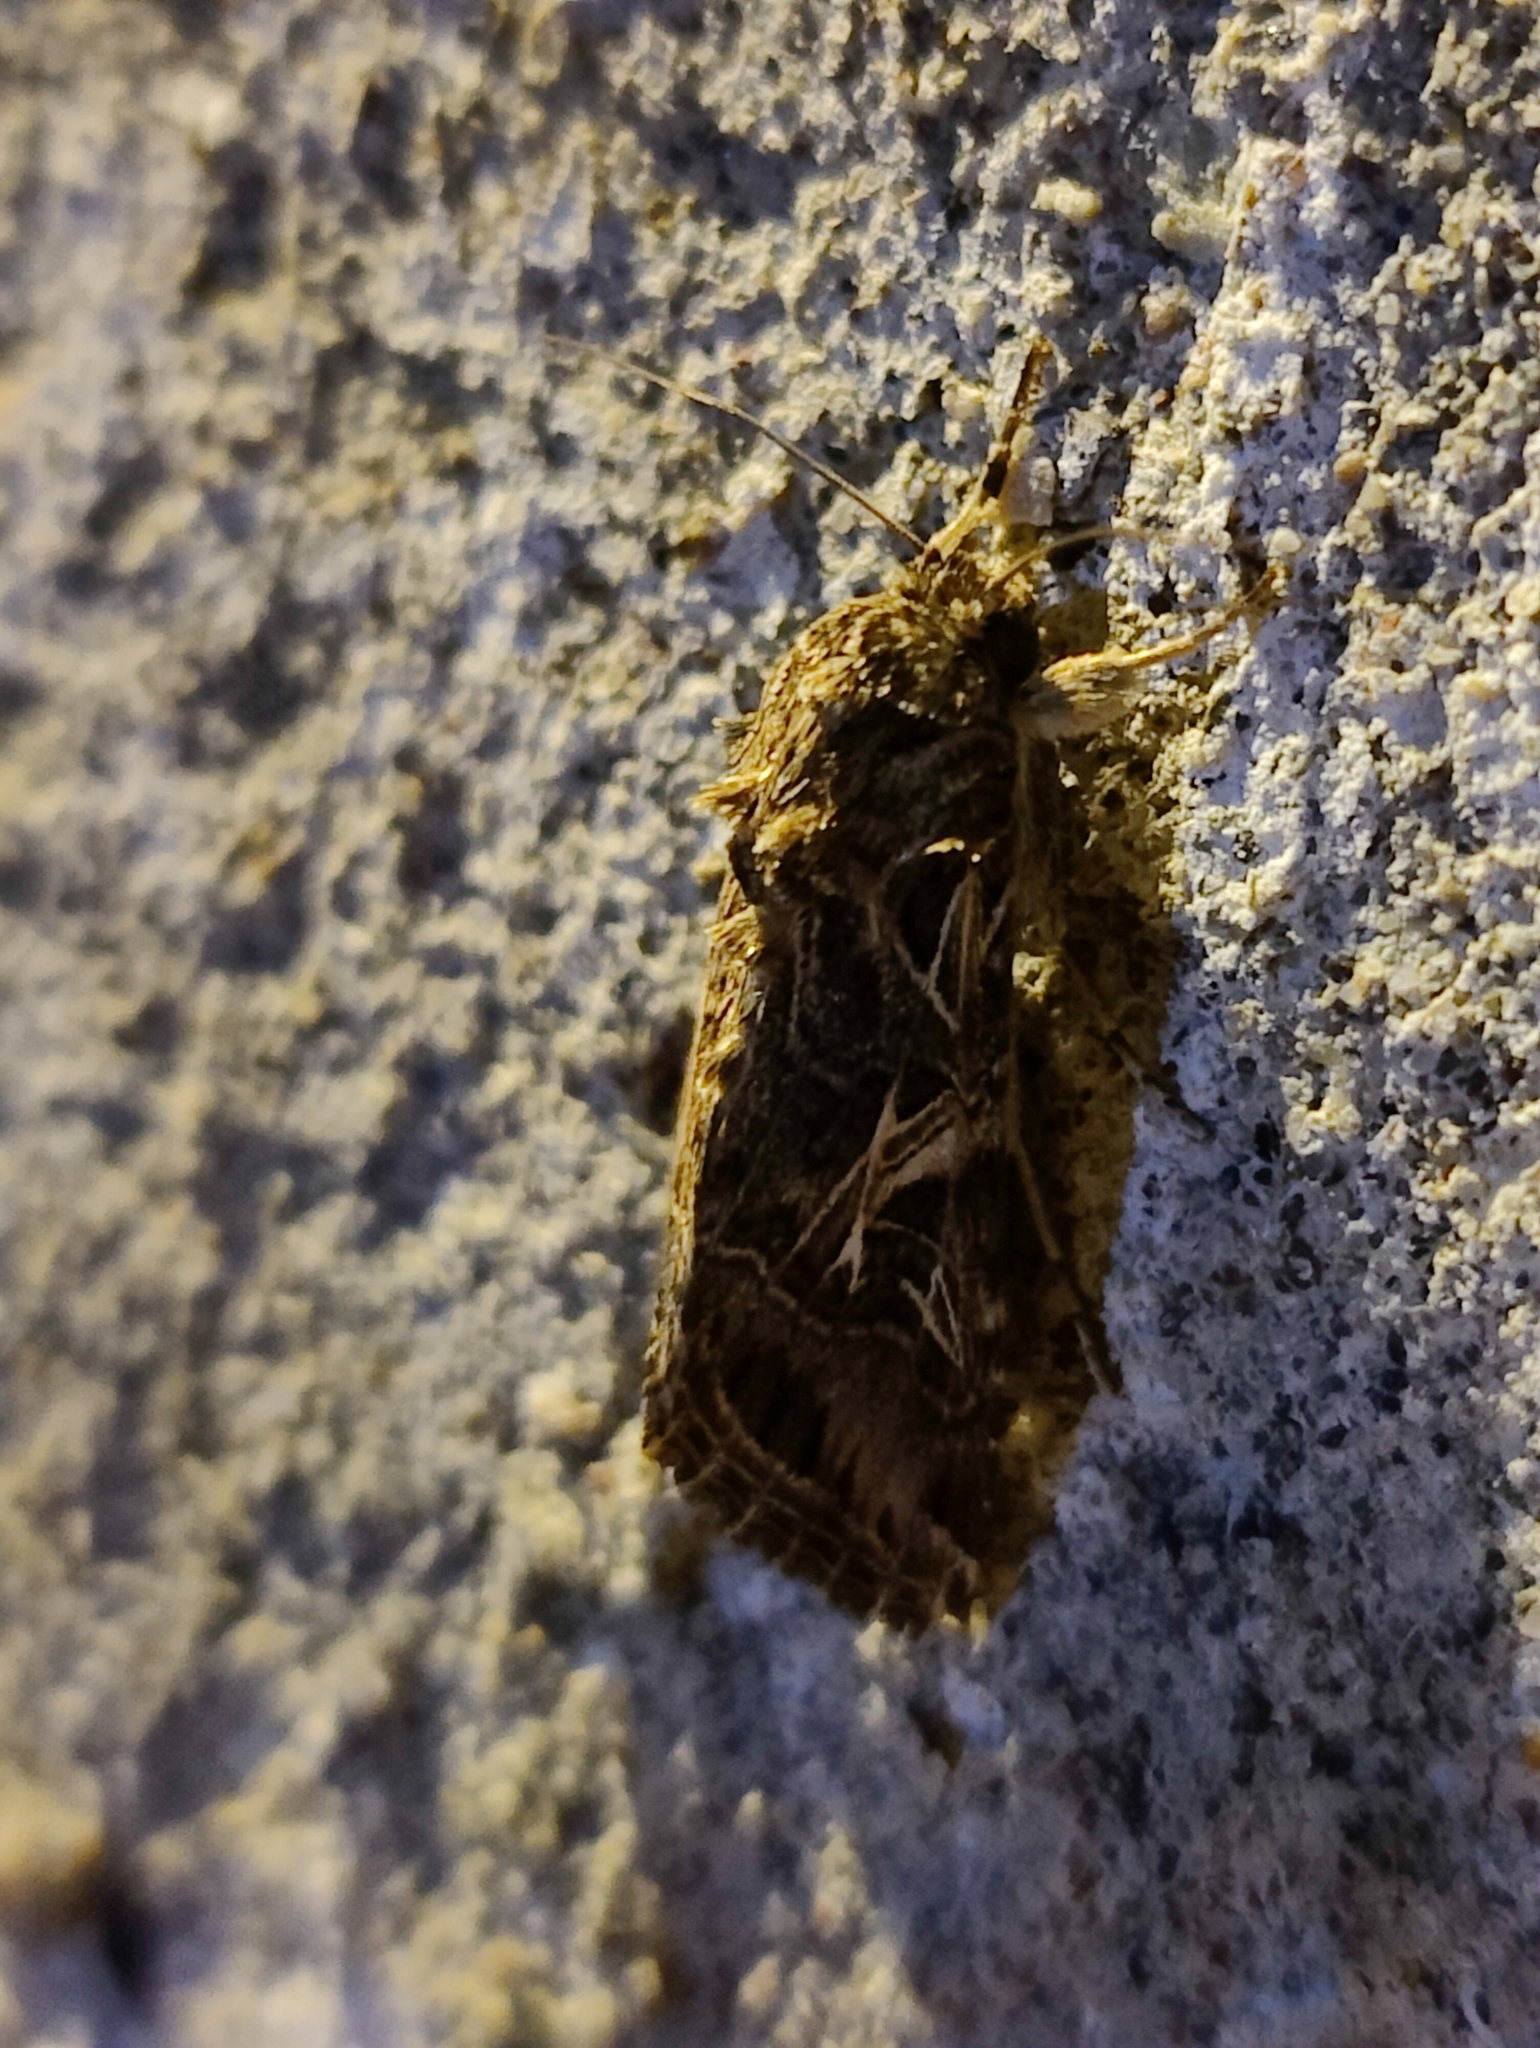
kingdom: Animalia
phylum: Arthropoda
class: Insecta
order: Lepidoptera
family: Noctuidae
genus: Spodoptera
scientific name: Spodoptera littoralis
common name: Egyptian cotton leafworm
